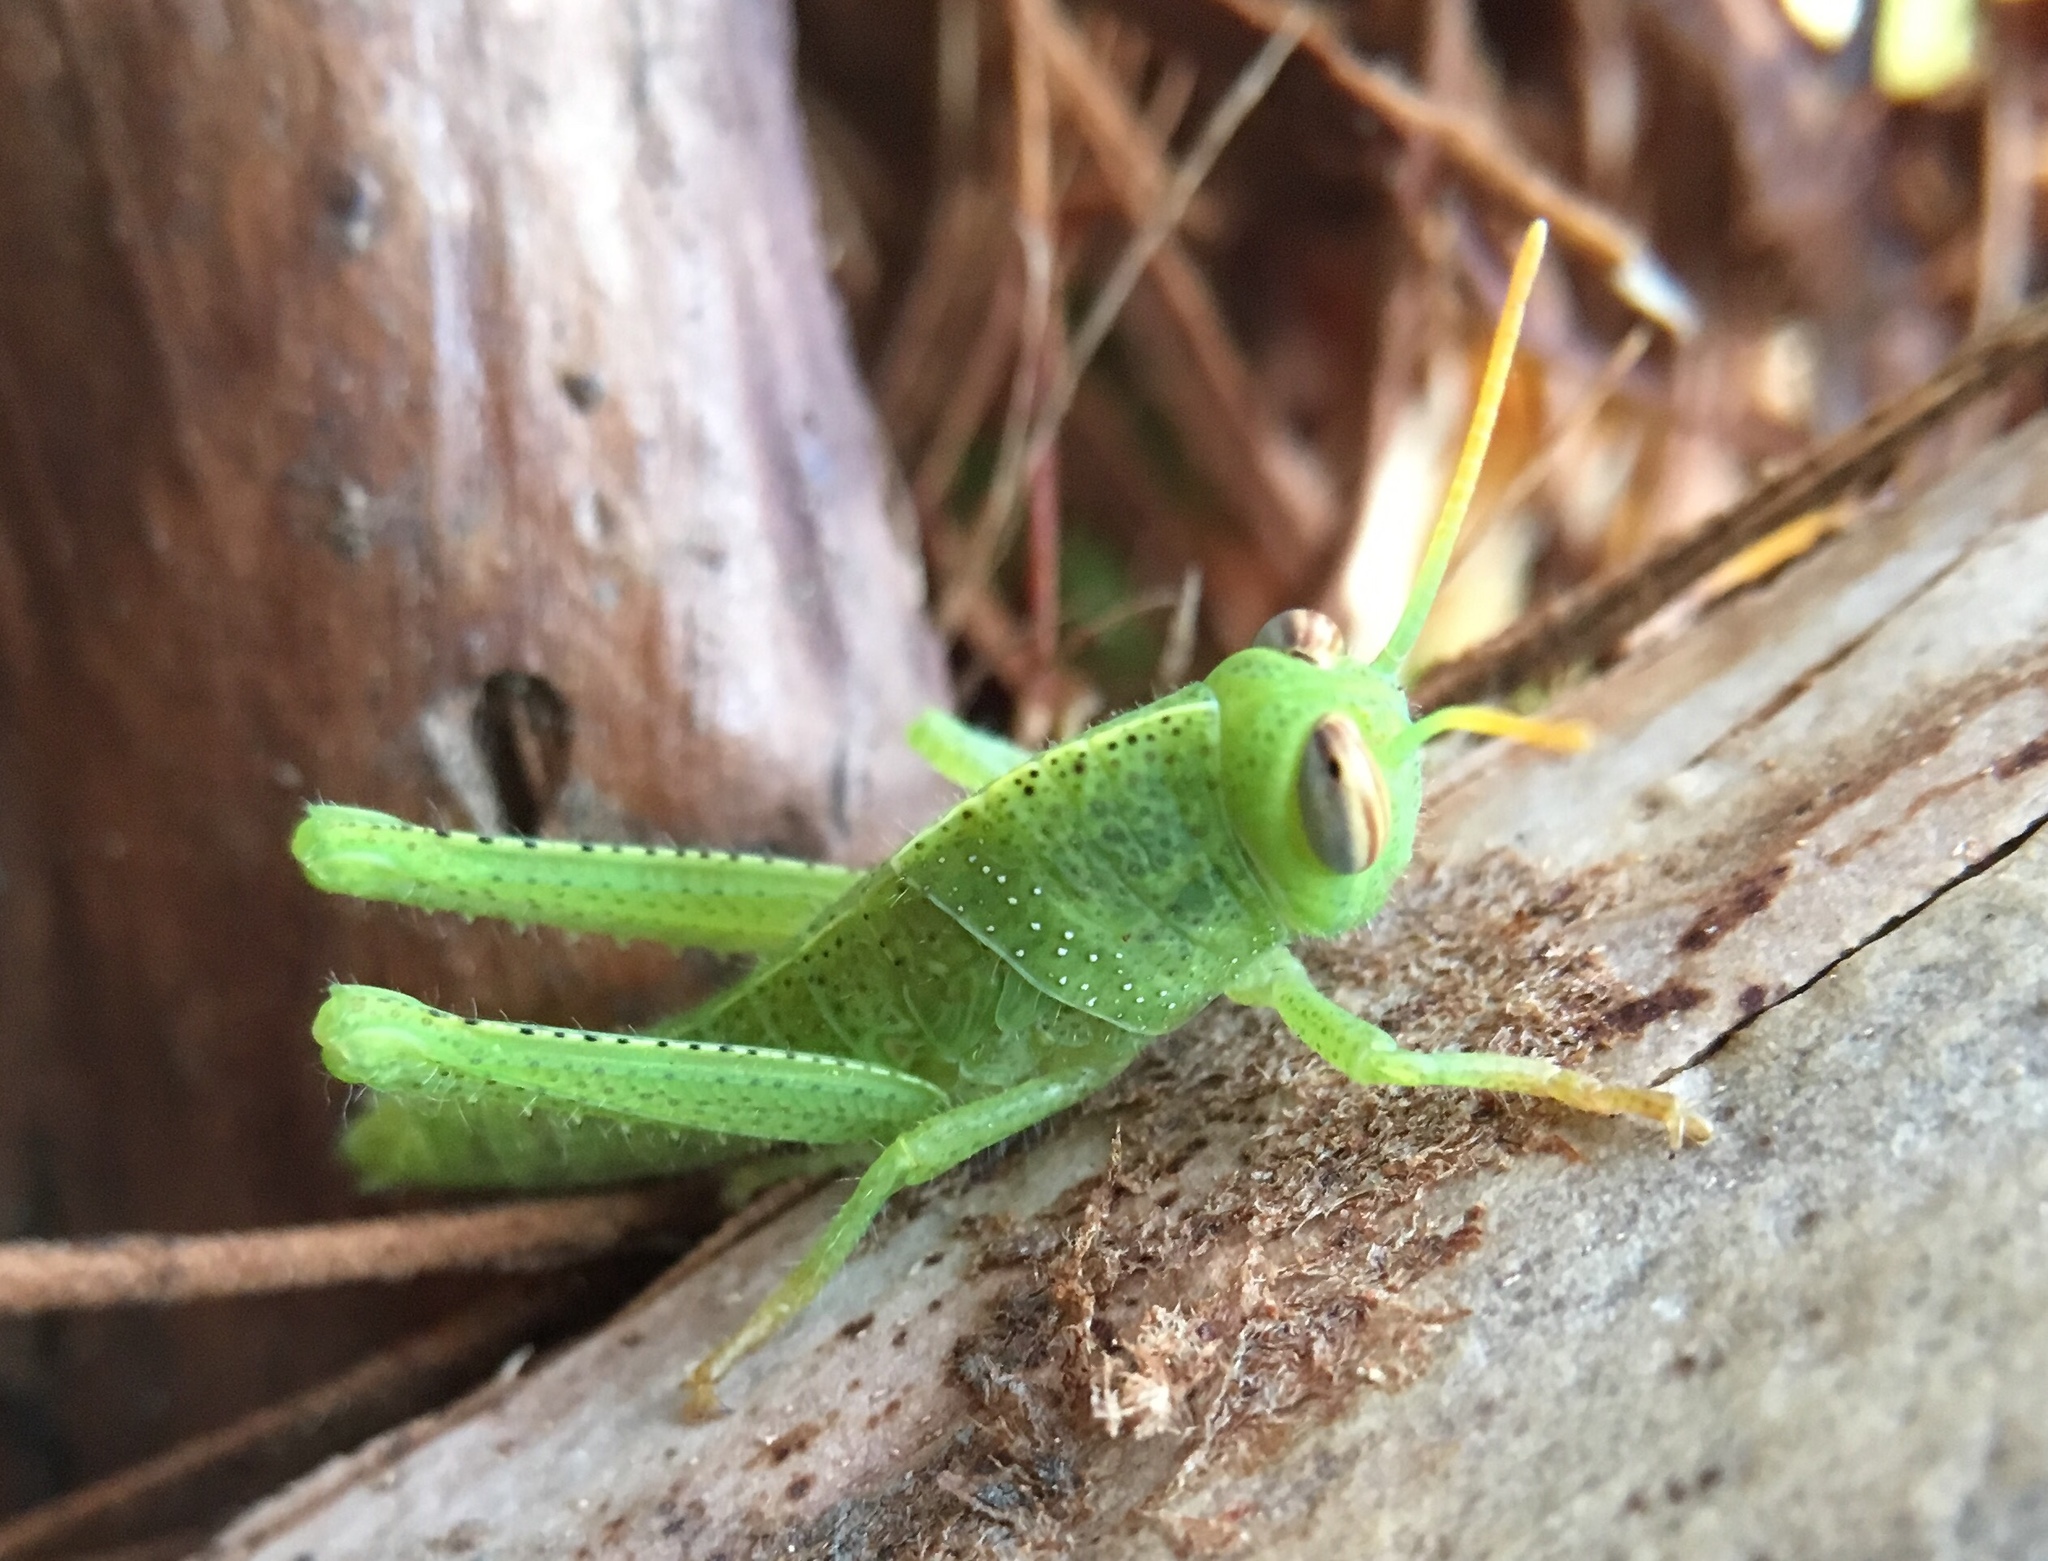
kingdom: Animalia
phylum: Arthropoda
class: Insecta
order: Orthoptera
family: Acrididae
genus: Anacridium
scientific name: Anacridium aegyptium
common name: Egyptian grasshopper
